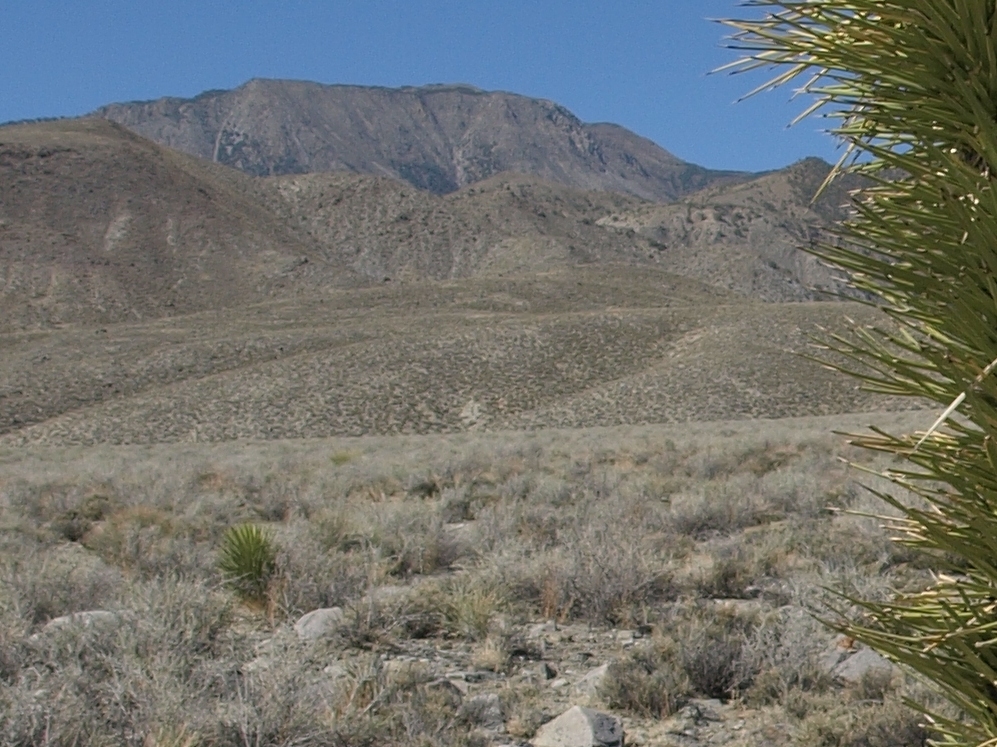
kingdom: Plantae
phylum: Tracheophyta
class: Liliopsida
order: Asparagales
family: Asparagaceae
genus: Yucca
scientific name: Yucca brevifolia
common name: Joshua tree
